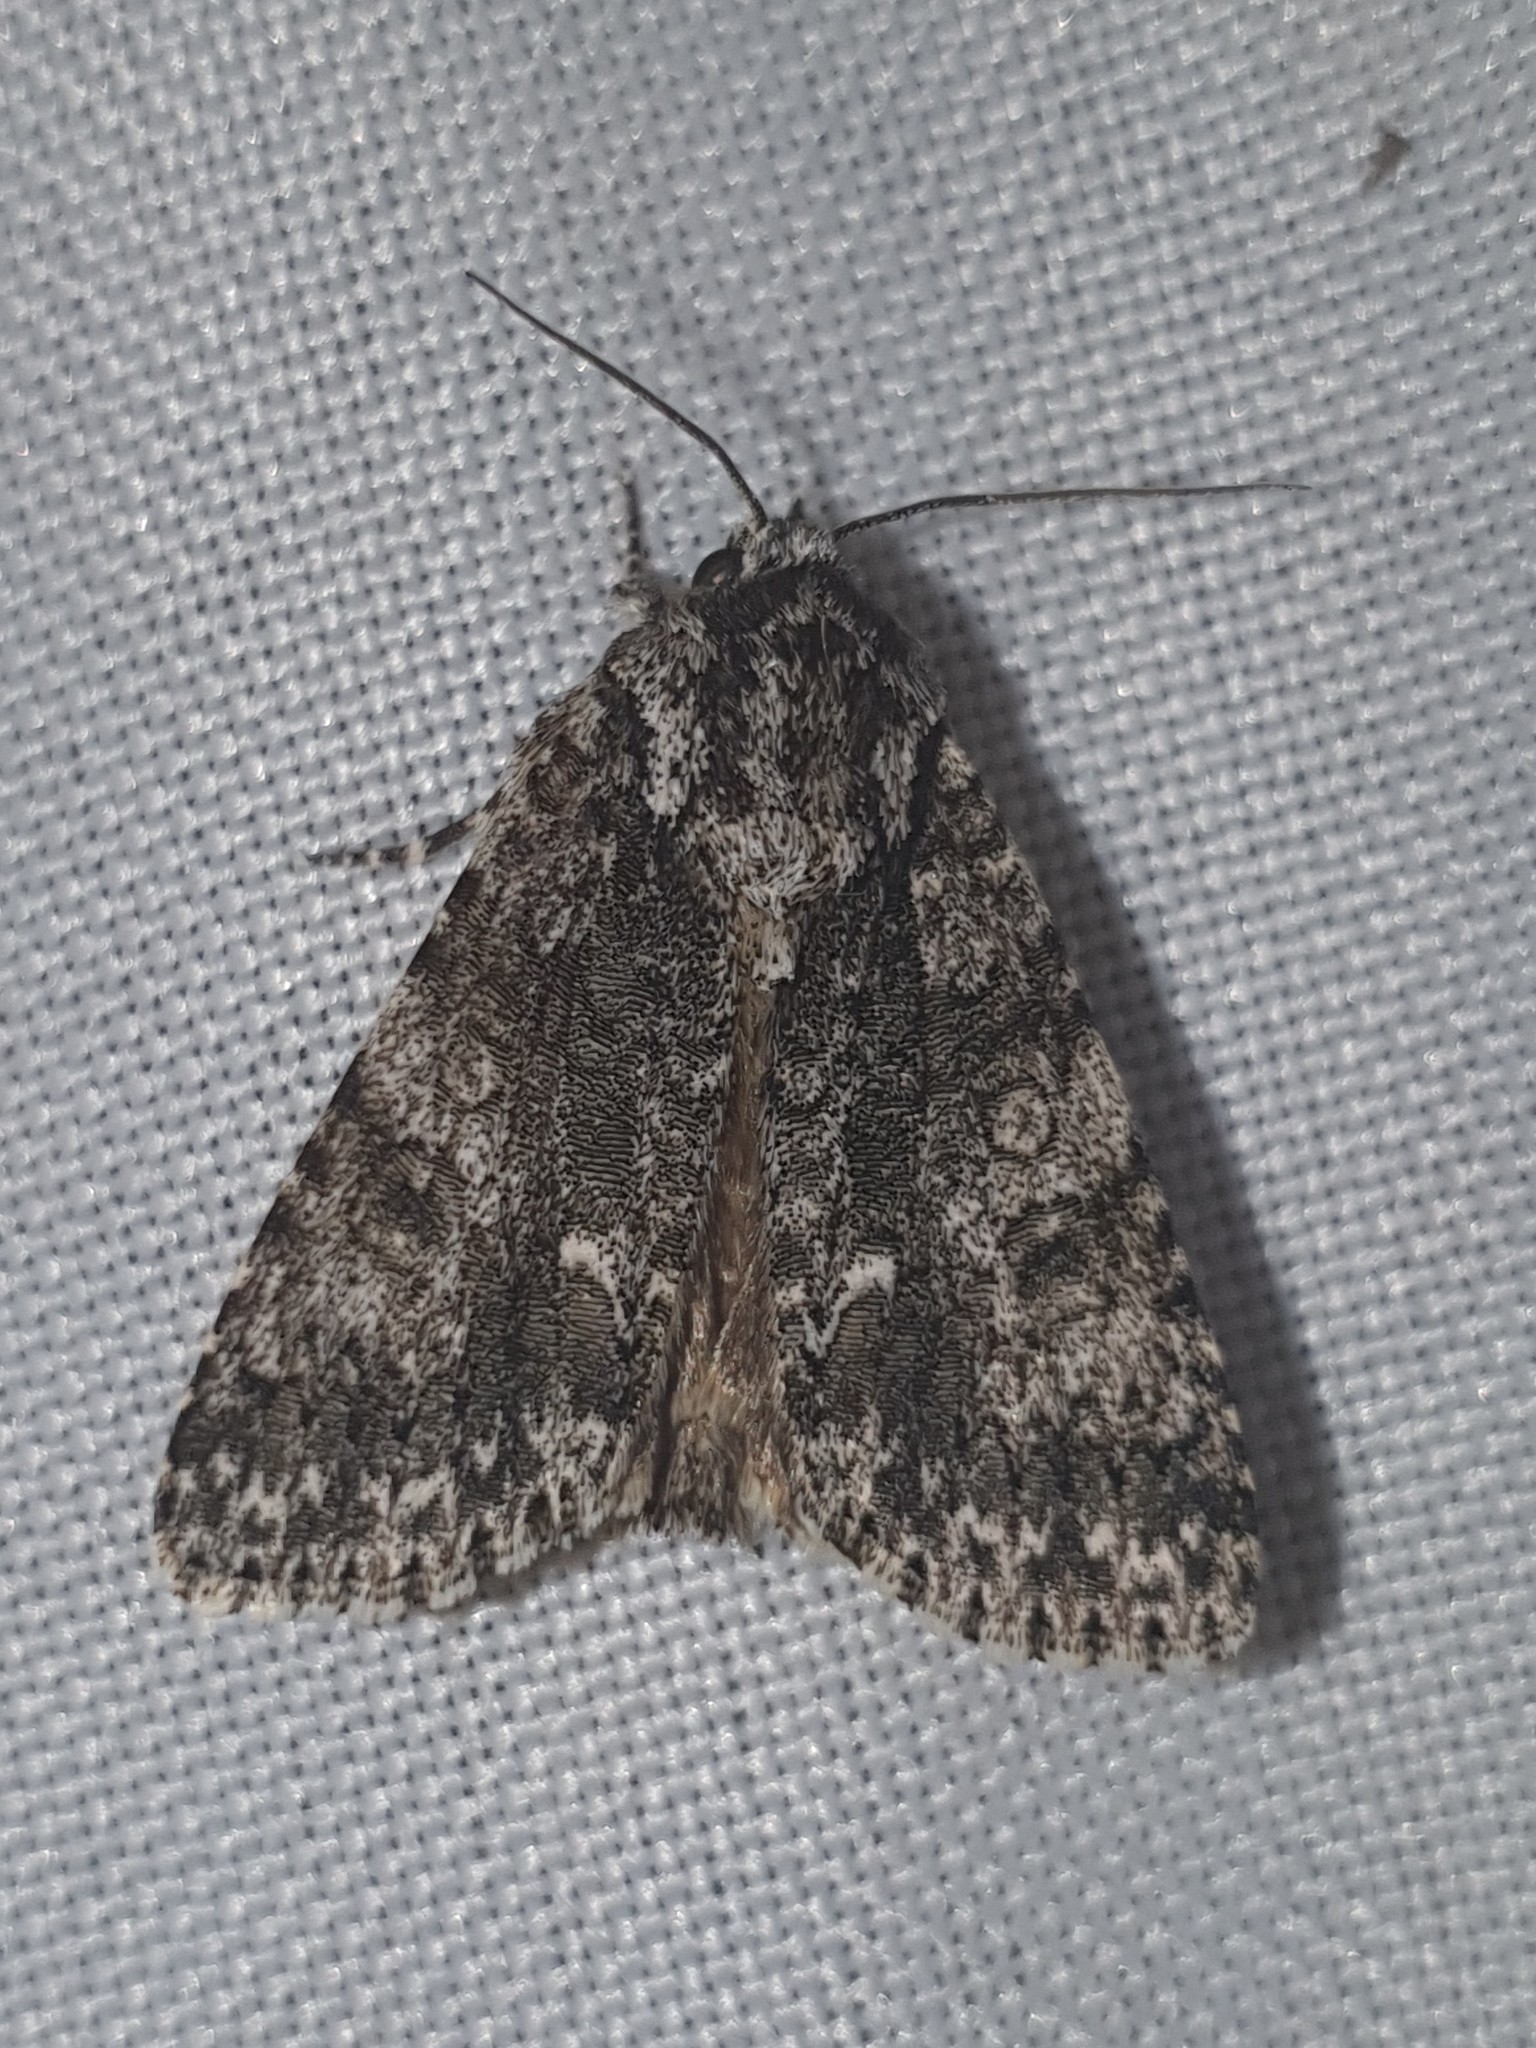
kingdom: Animalia
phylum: Arthropoda
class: Insecta
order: Lepidoptera
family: Noctuidae
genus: Acronicta
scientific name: Acronicta rumicis
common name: Knot grass
